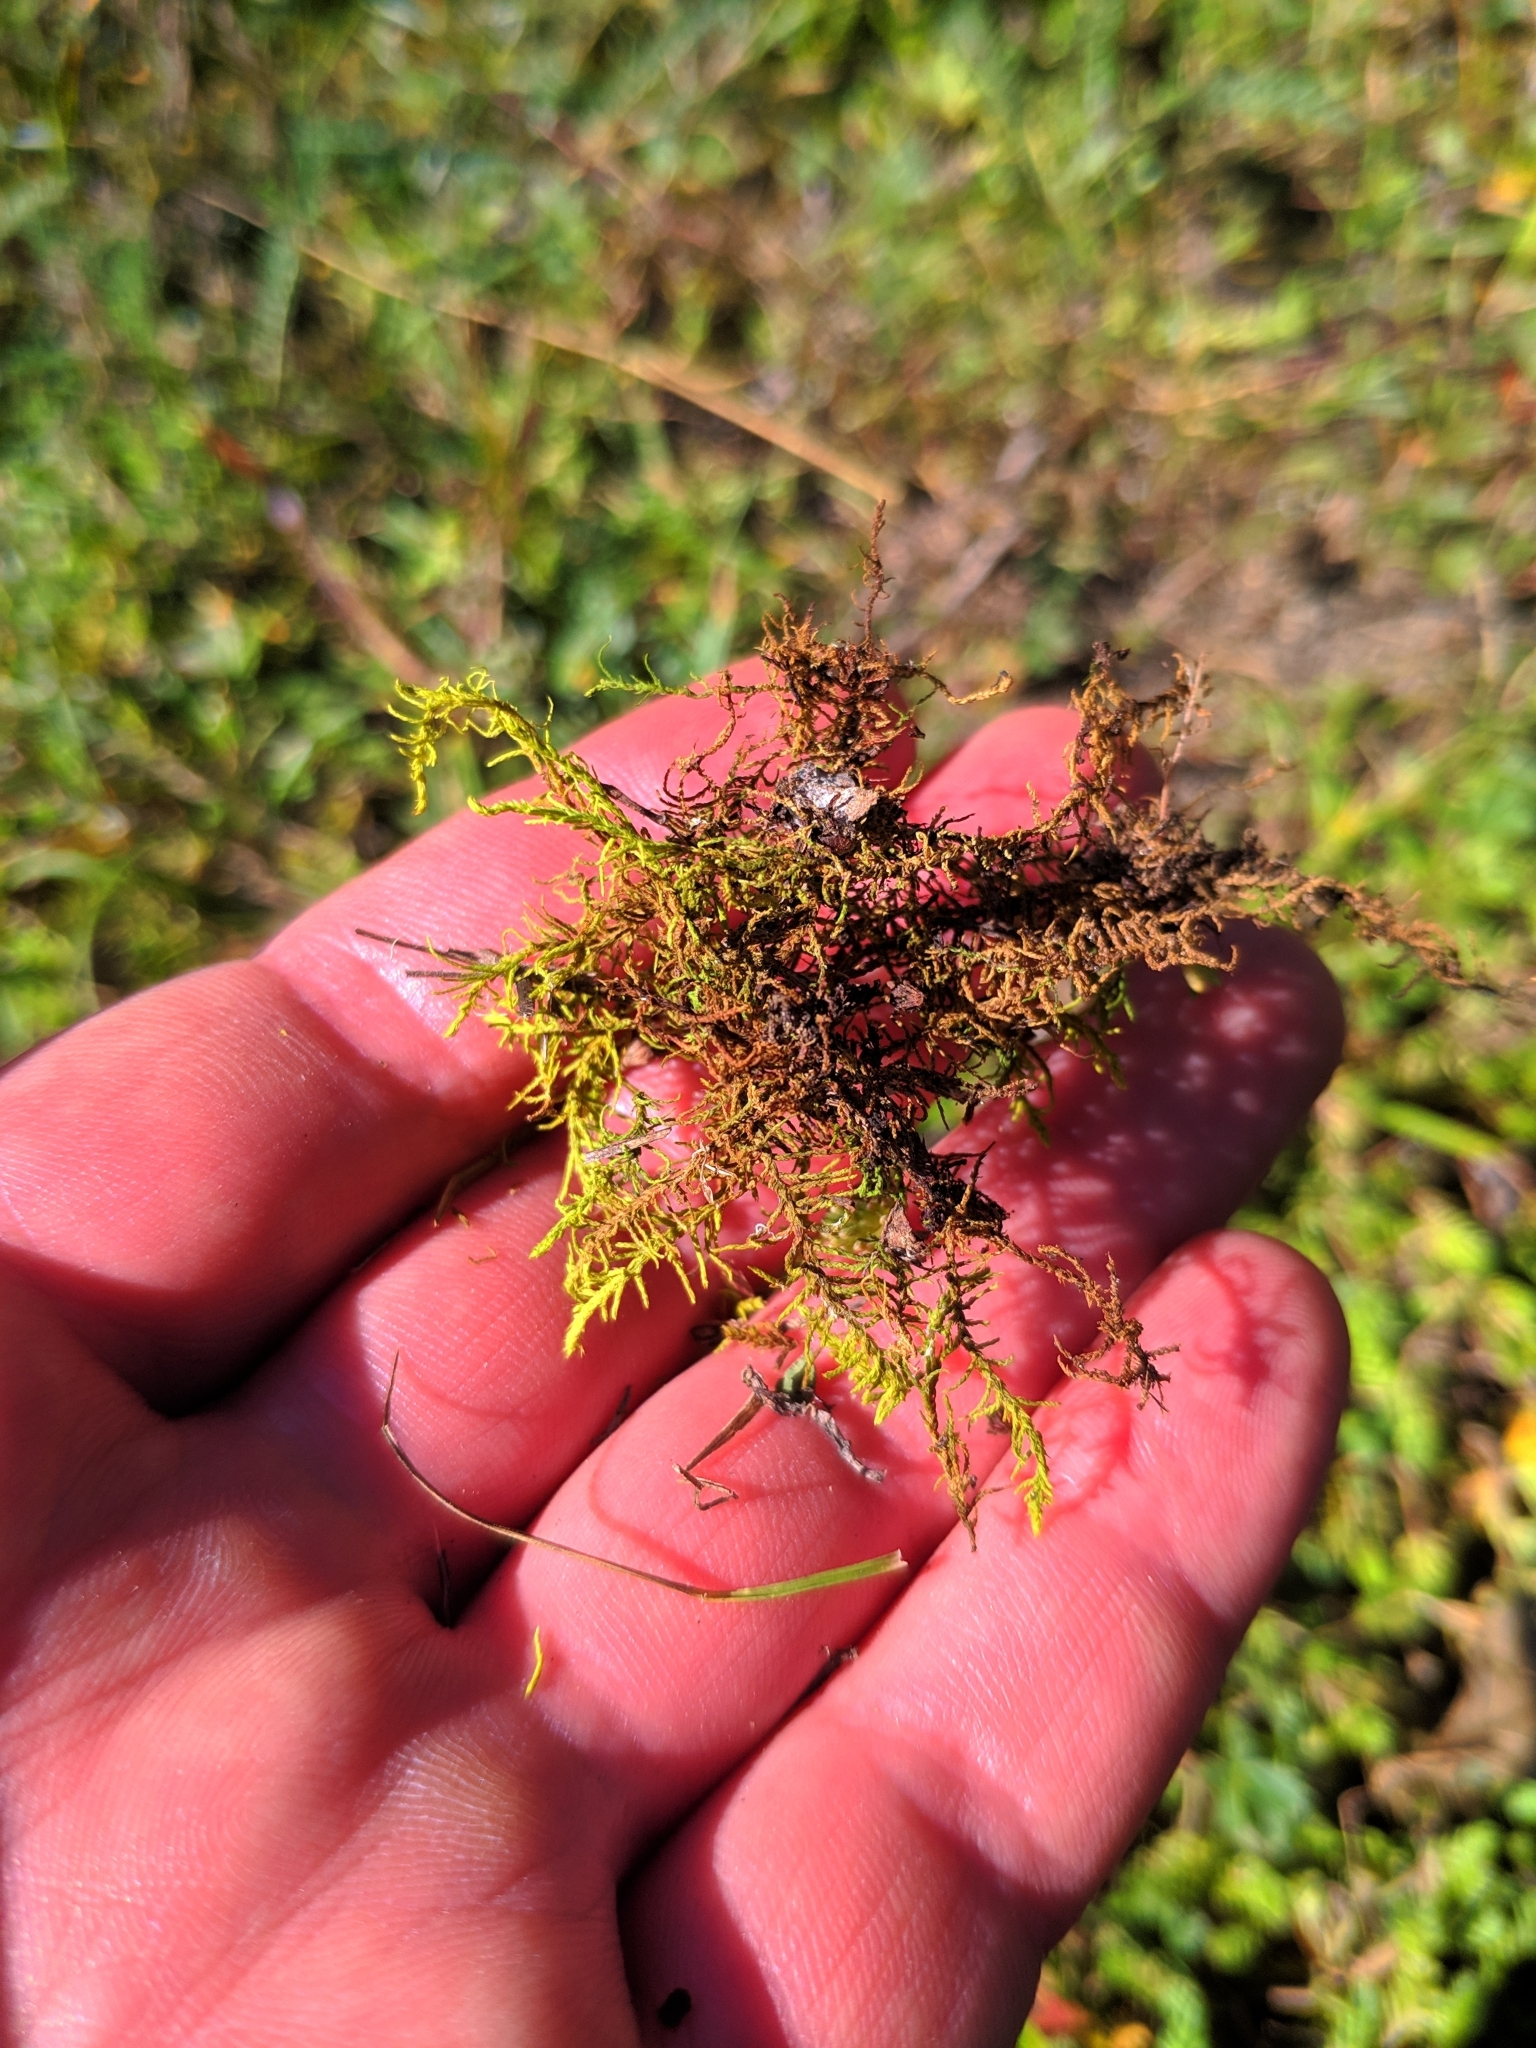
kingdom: Plantae
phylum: Bryophyta
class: Bryopsida
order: Hypnales
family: Thuidiaceae
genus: Abietinella
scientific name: Abietinella abietina
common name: Wiry fern moss
